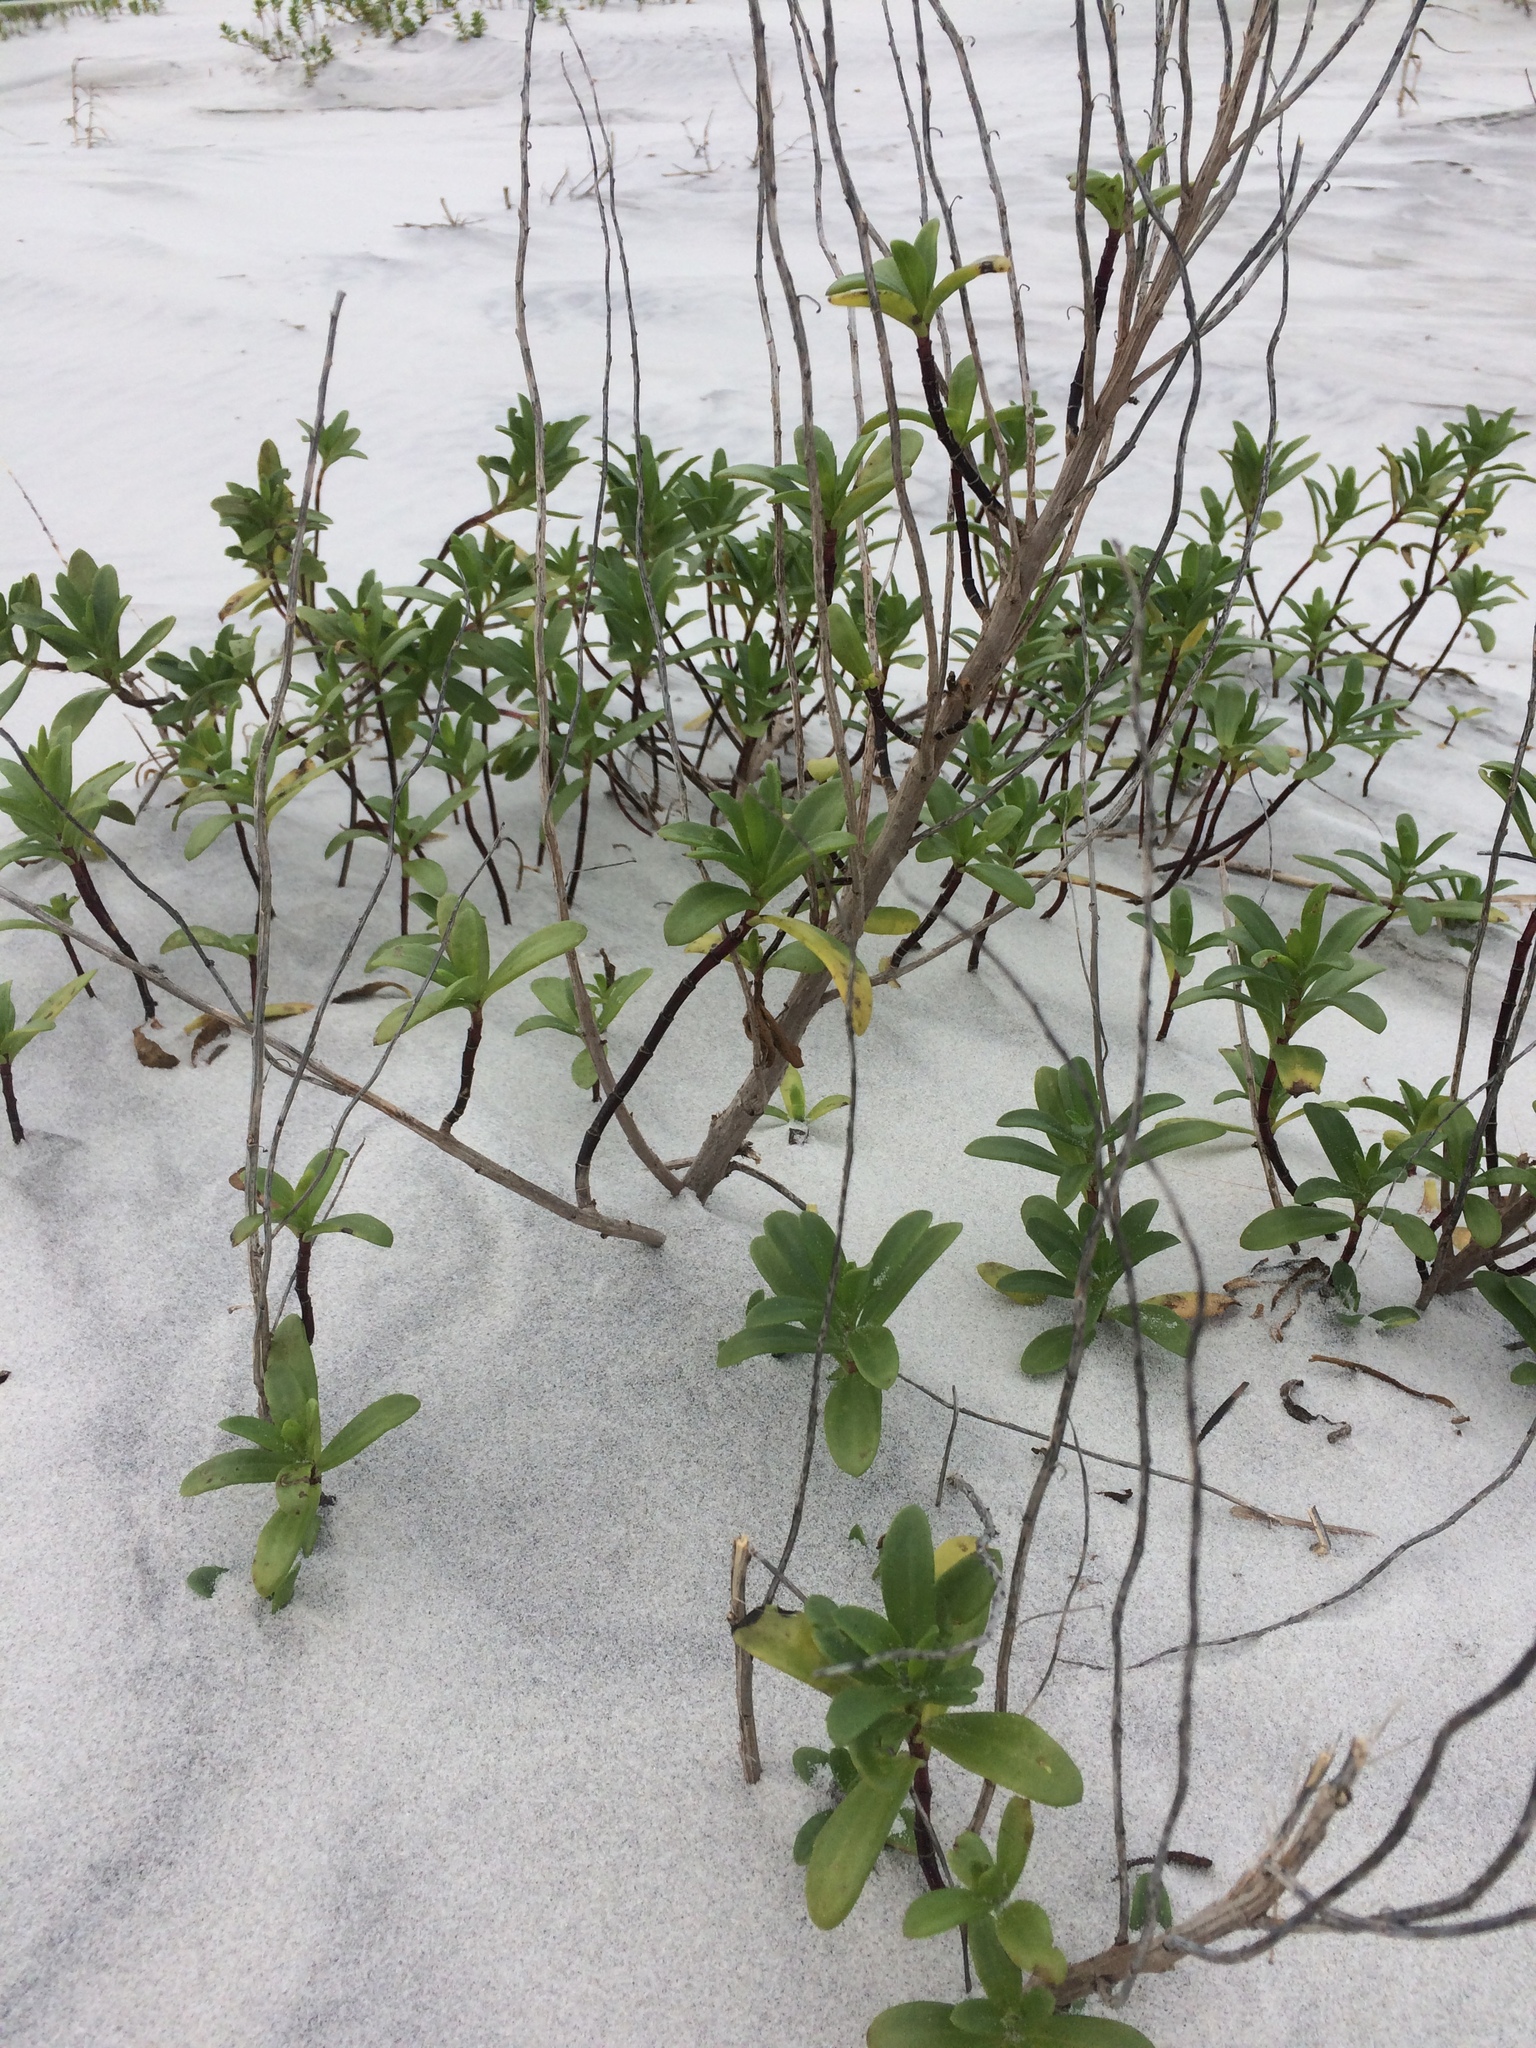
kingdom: Plantae
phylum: Tracheophyta
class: Magnoliopsida
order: Asterales
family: Asteraceae
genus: Iva
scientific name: Iva imbricata
